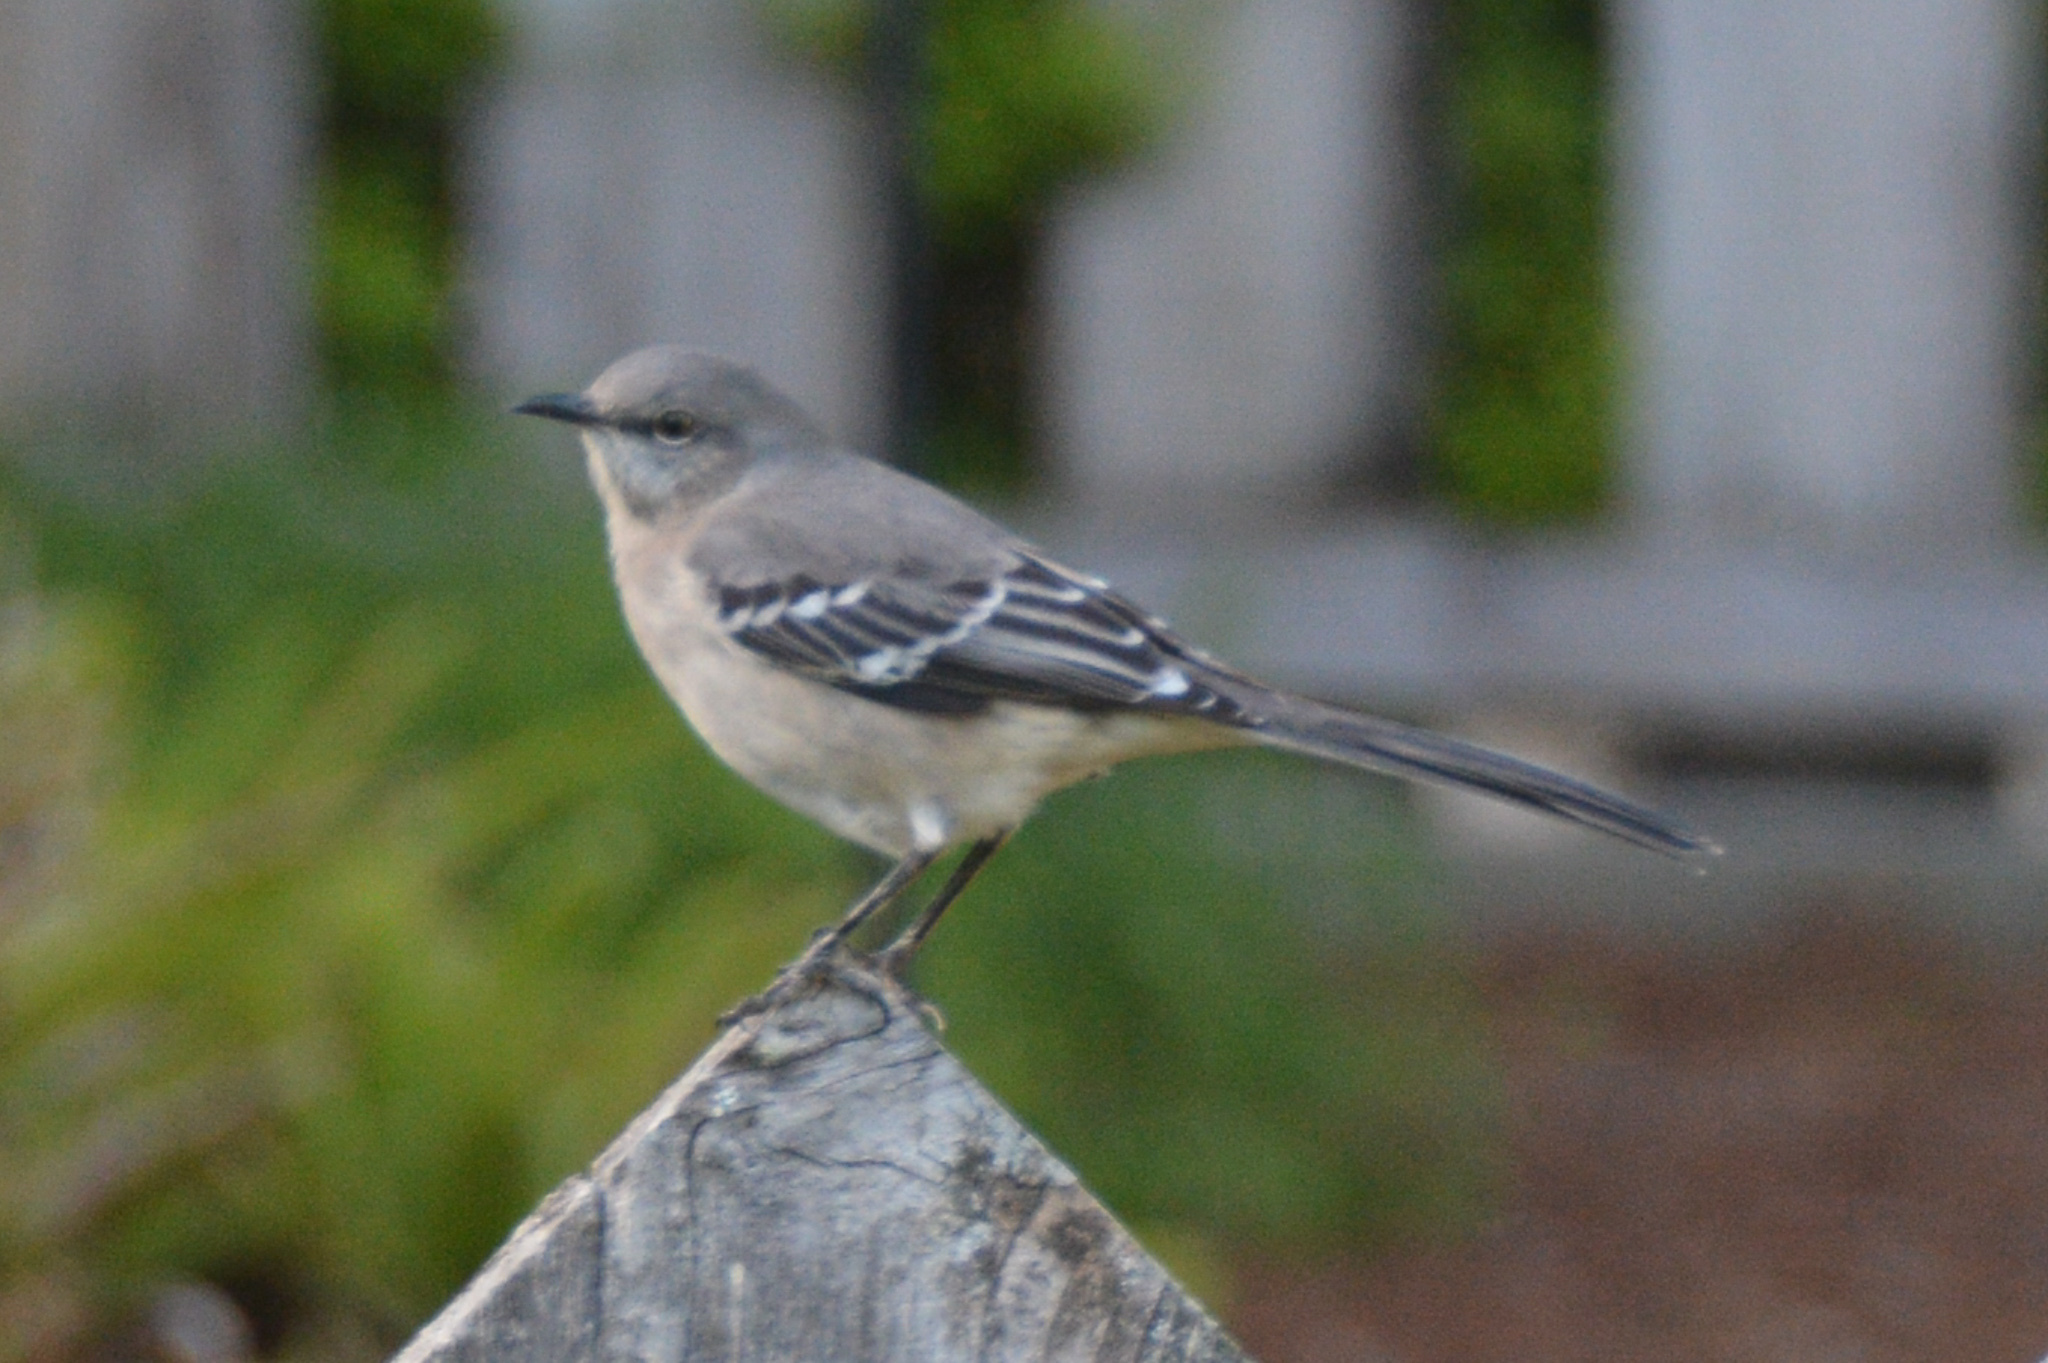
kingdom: Animalia
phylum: Chordata
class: Aves
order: Passeriformes
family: Mimidae
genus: Mimus
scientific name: Mimus polyglottos
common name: Northern mockingbird
